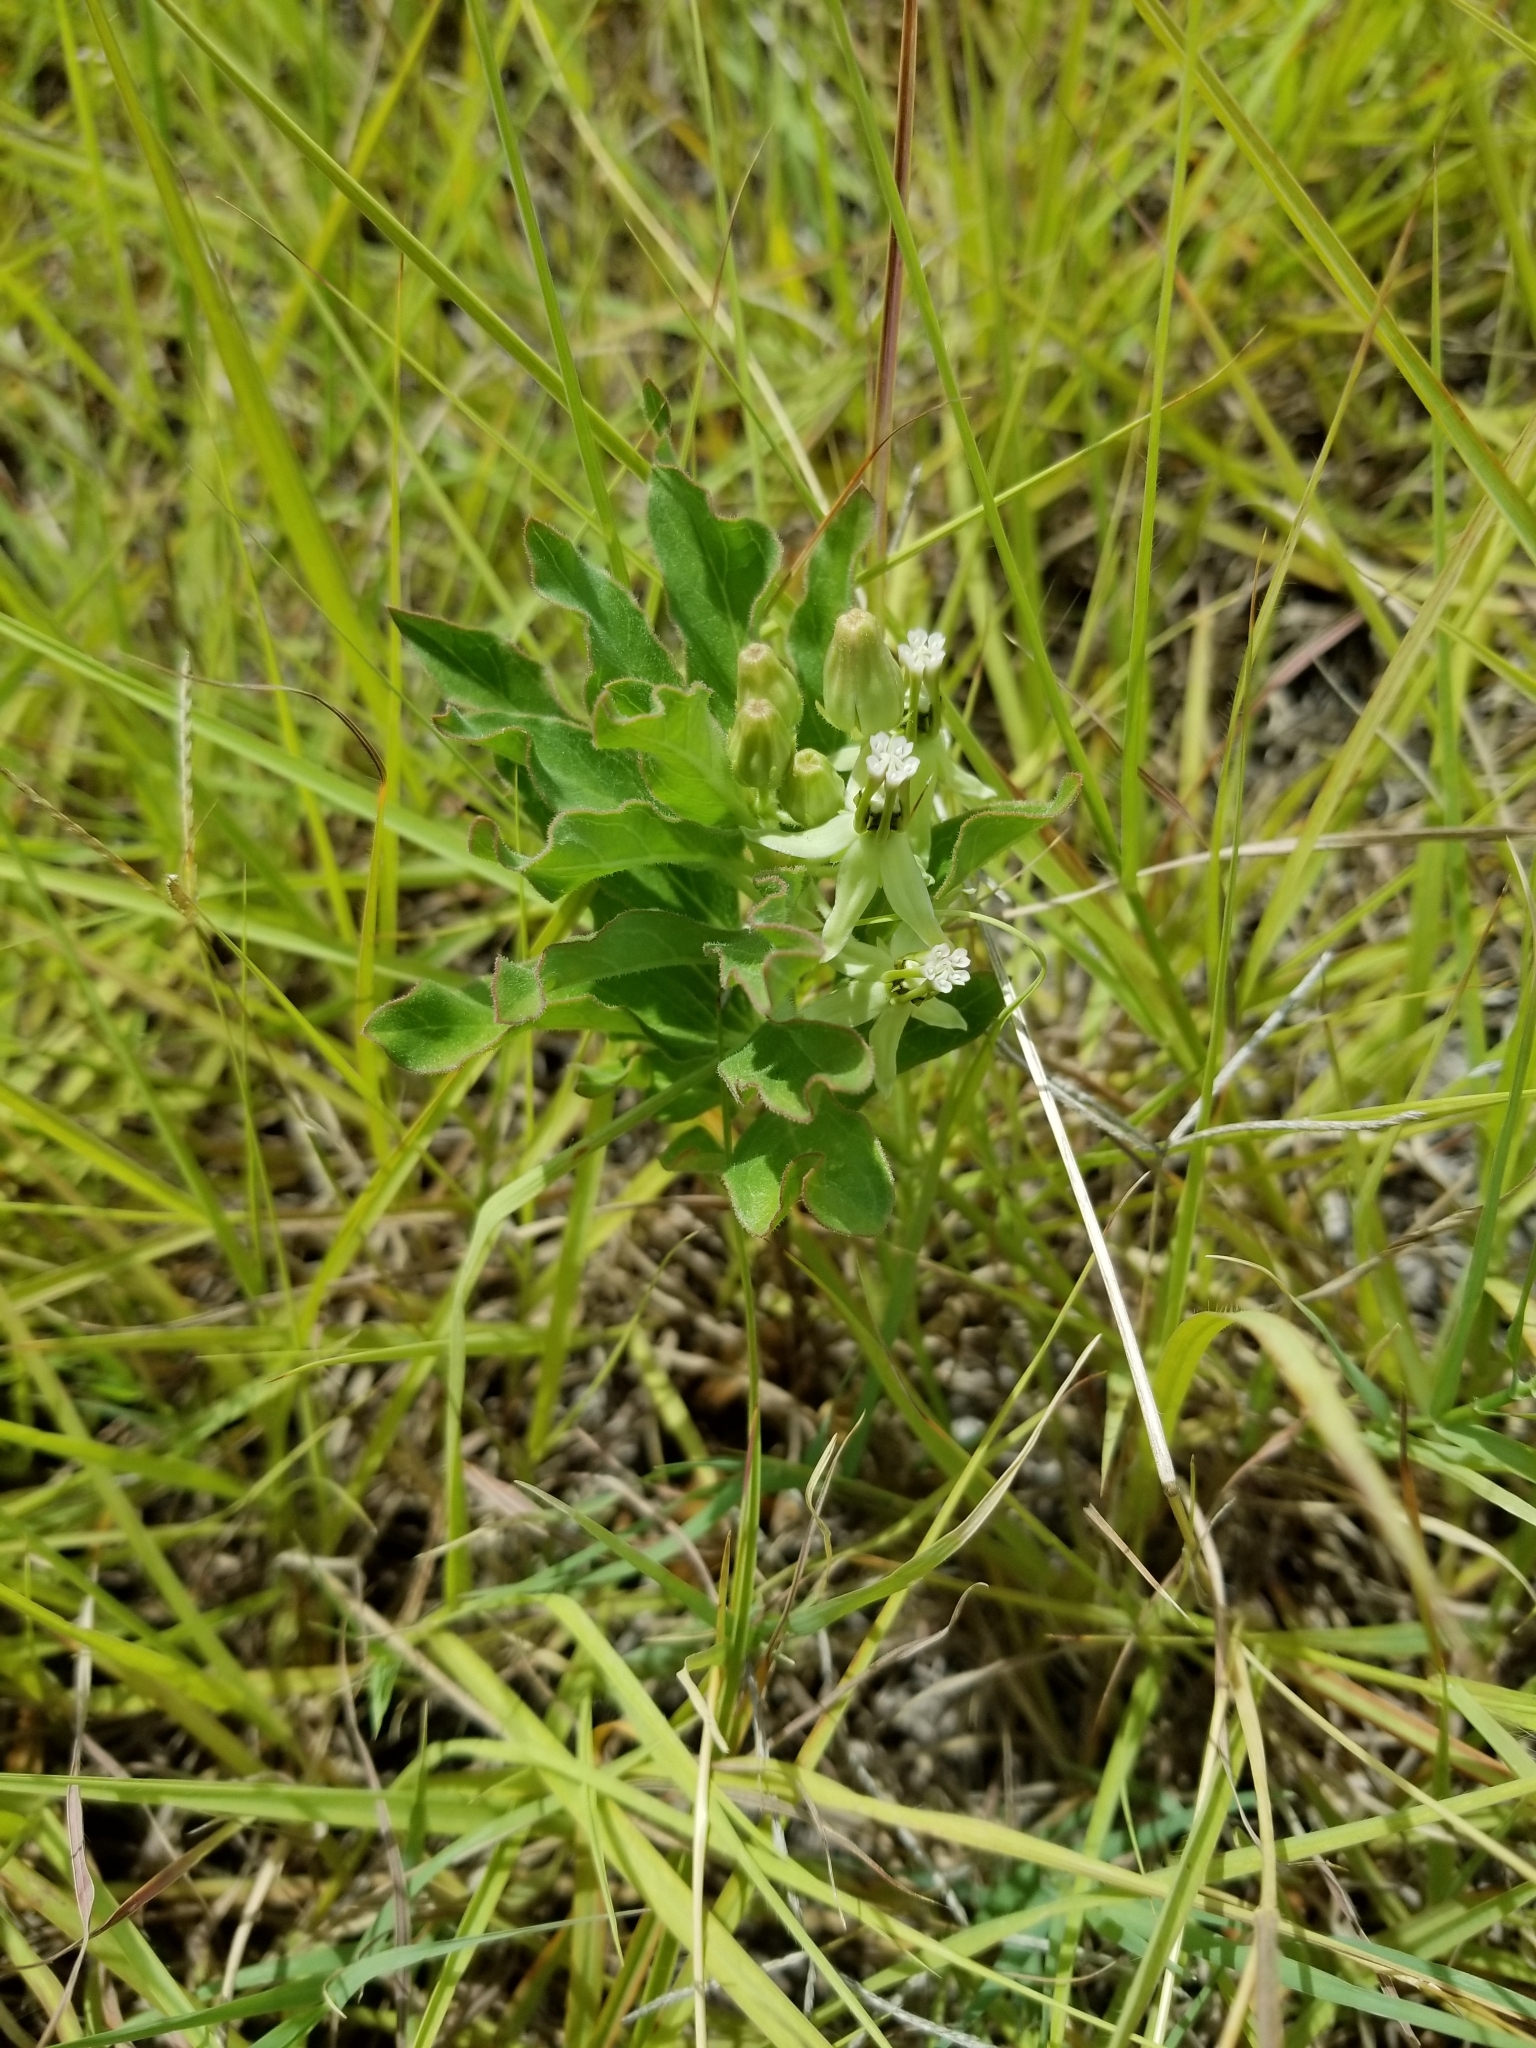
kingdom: Plantae
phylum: Tracheophyta
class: Magnoliopsida
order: Gentianales
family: Apocynaceae
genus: Asclepias
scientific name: Asclepias oenotheroides
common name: Zizotes milkweed
